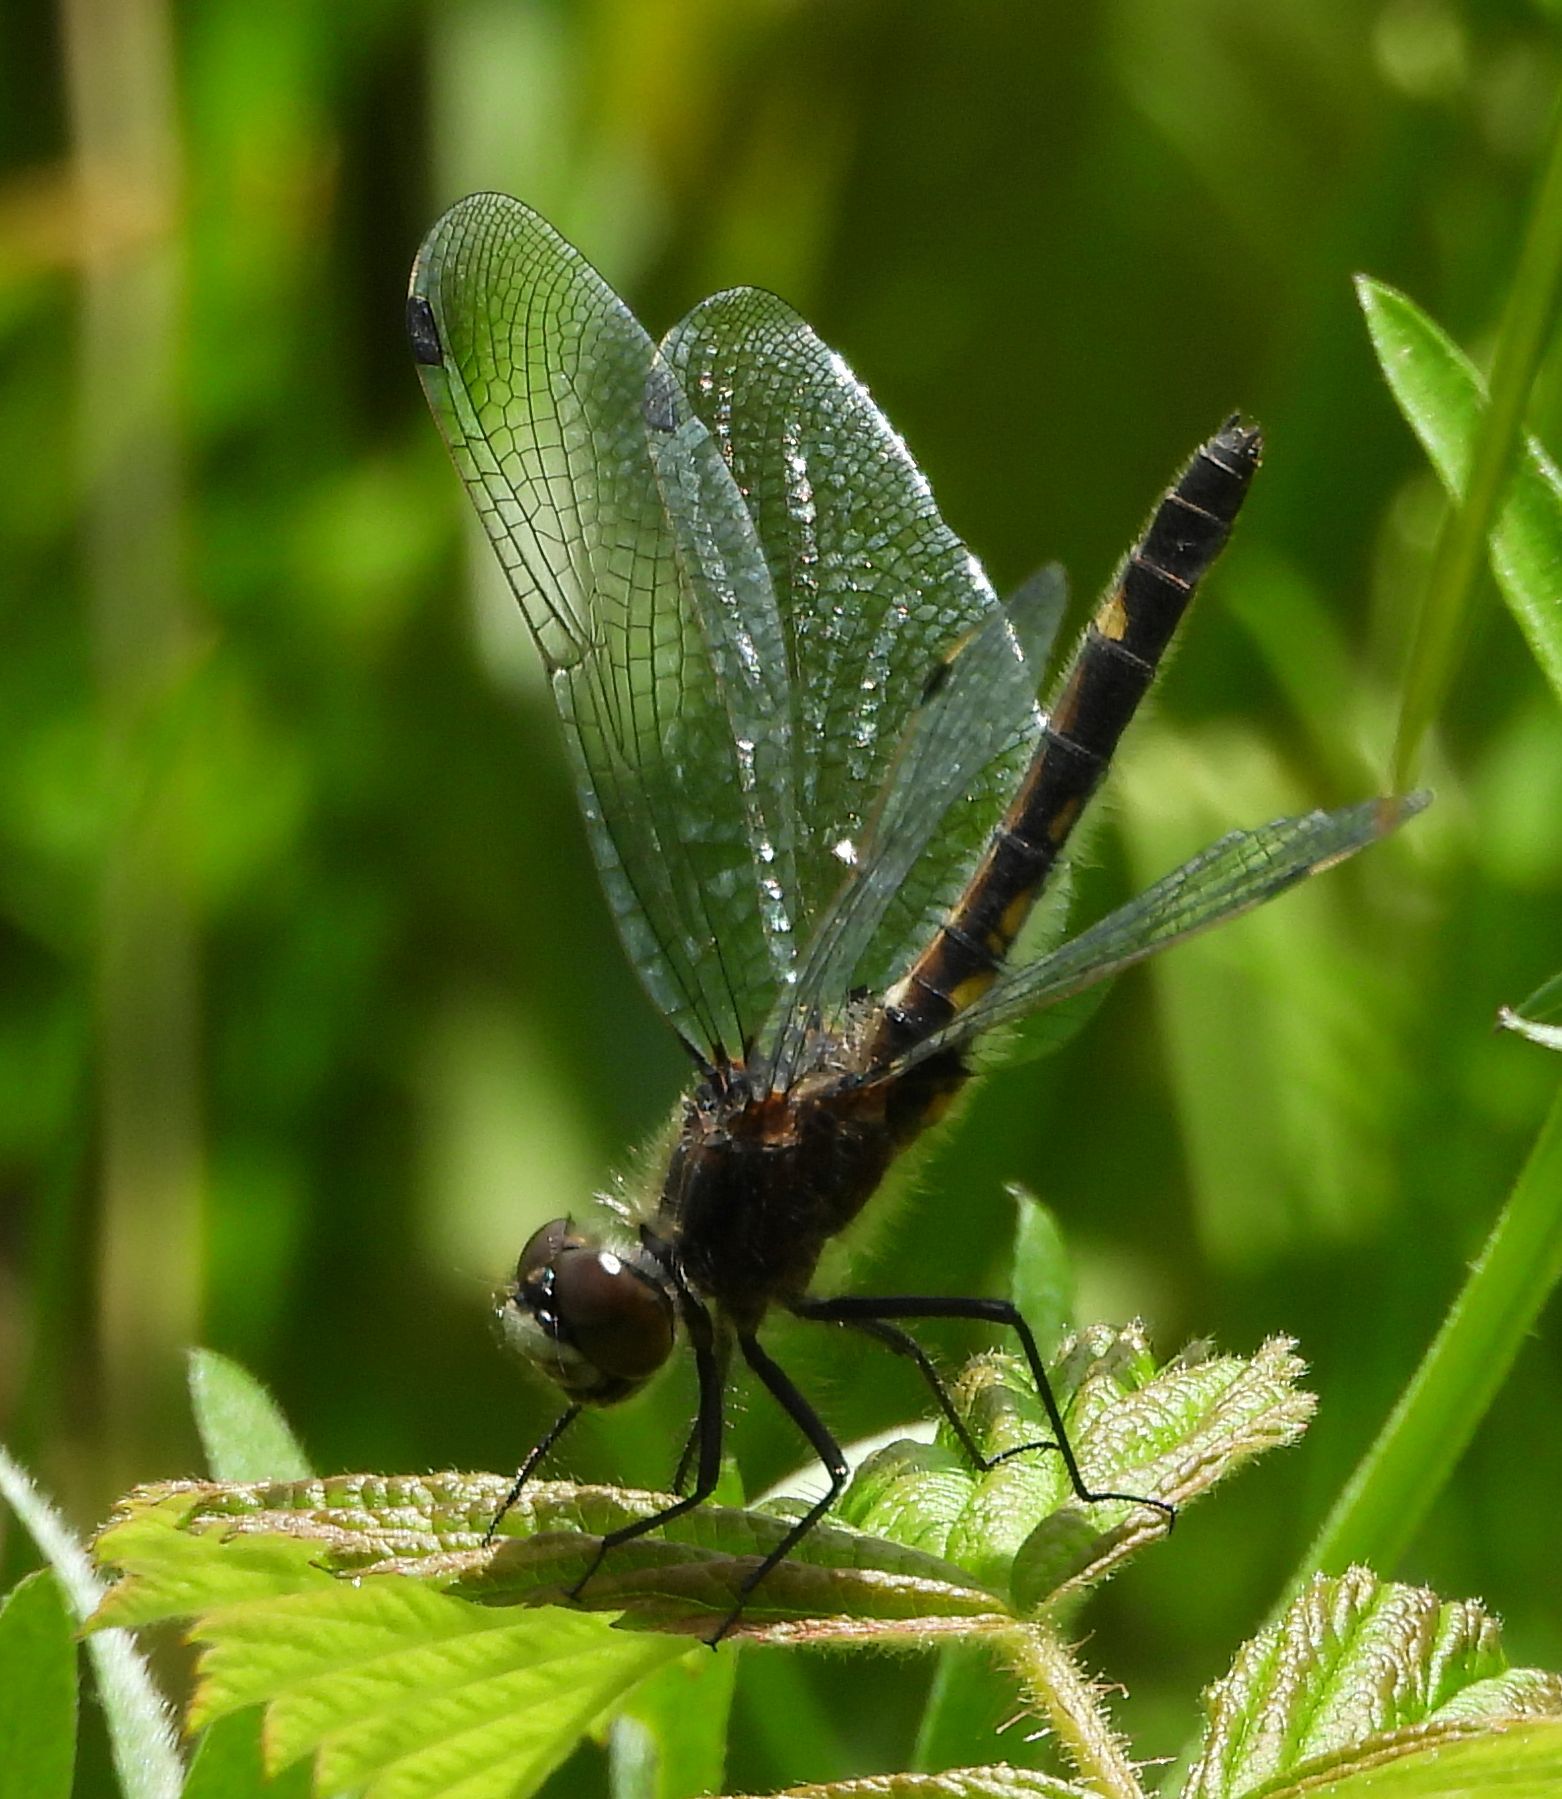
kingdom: Animalia
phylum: Arthropoda
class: Insecta
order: Odonata
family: Libellulidae
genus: Leucorrhinia
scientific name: Leucorrhinia intacta
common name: Dot-tailed whiteface
